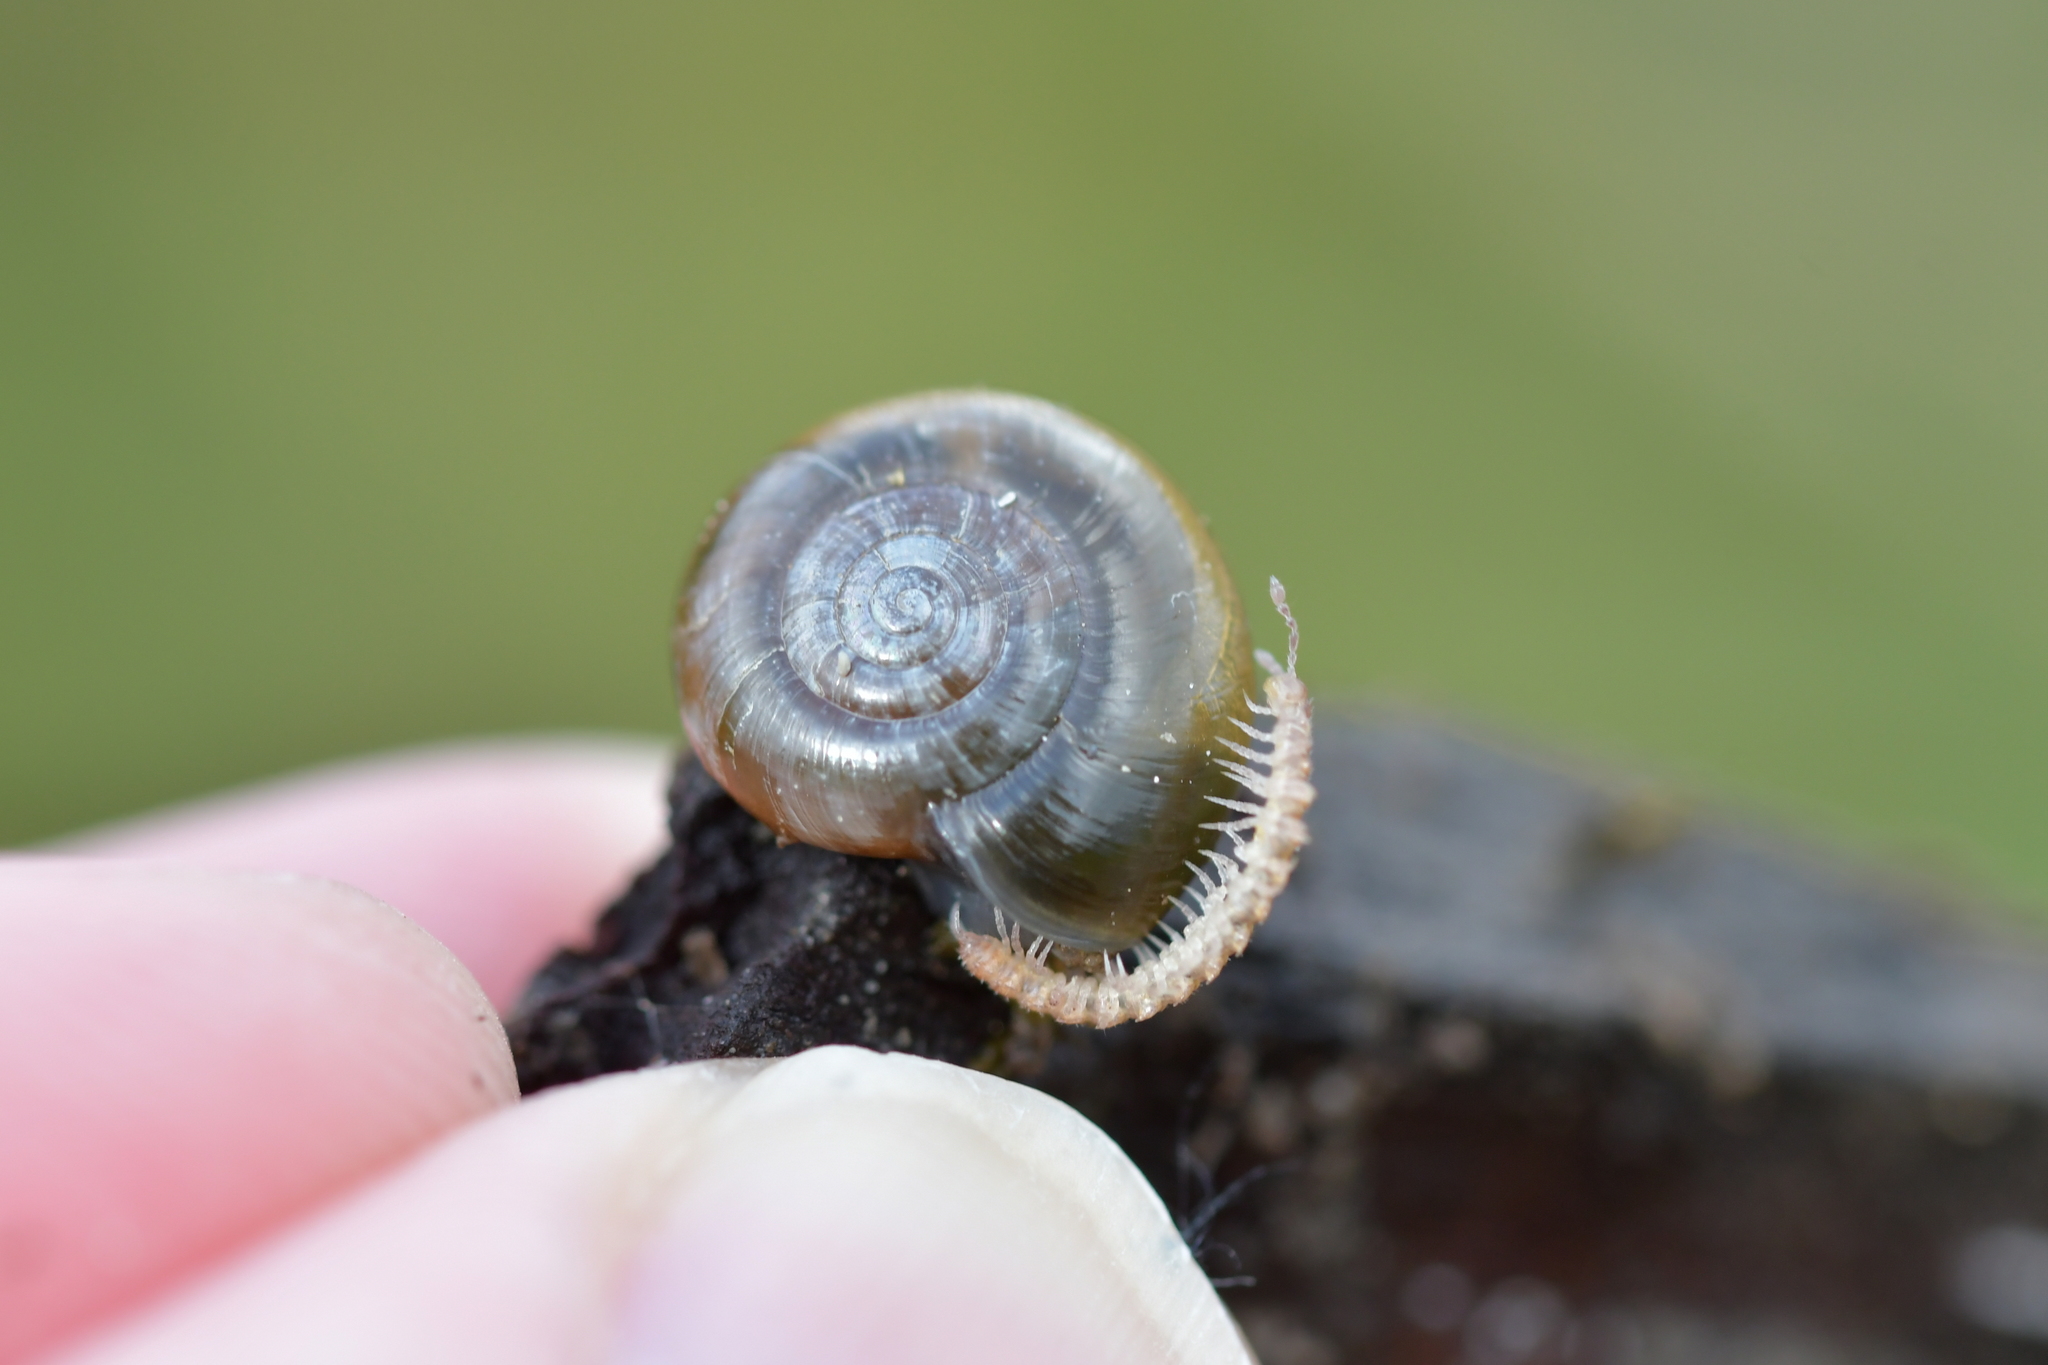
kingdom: Animalia
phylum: Mollusca
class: Gastropoda
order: Stylommatophora
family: Oxychilidae
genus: Oxychilus
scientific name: Oxychilus
